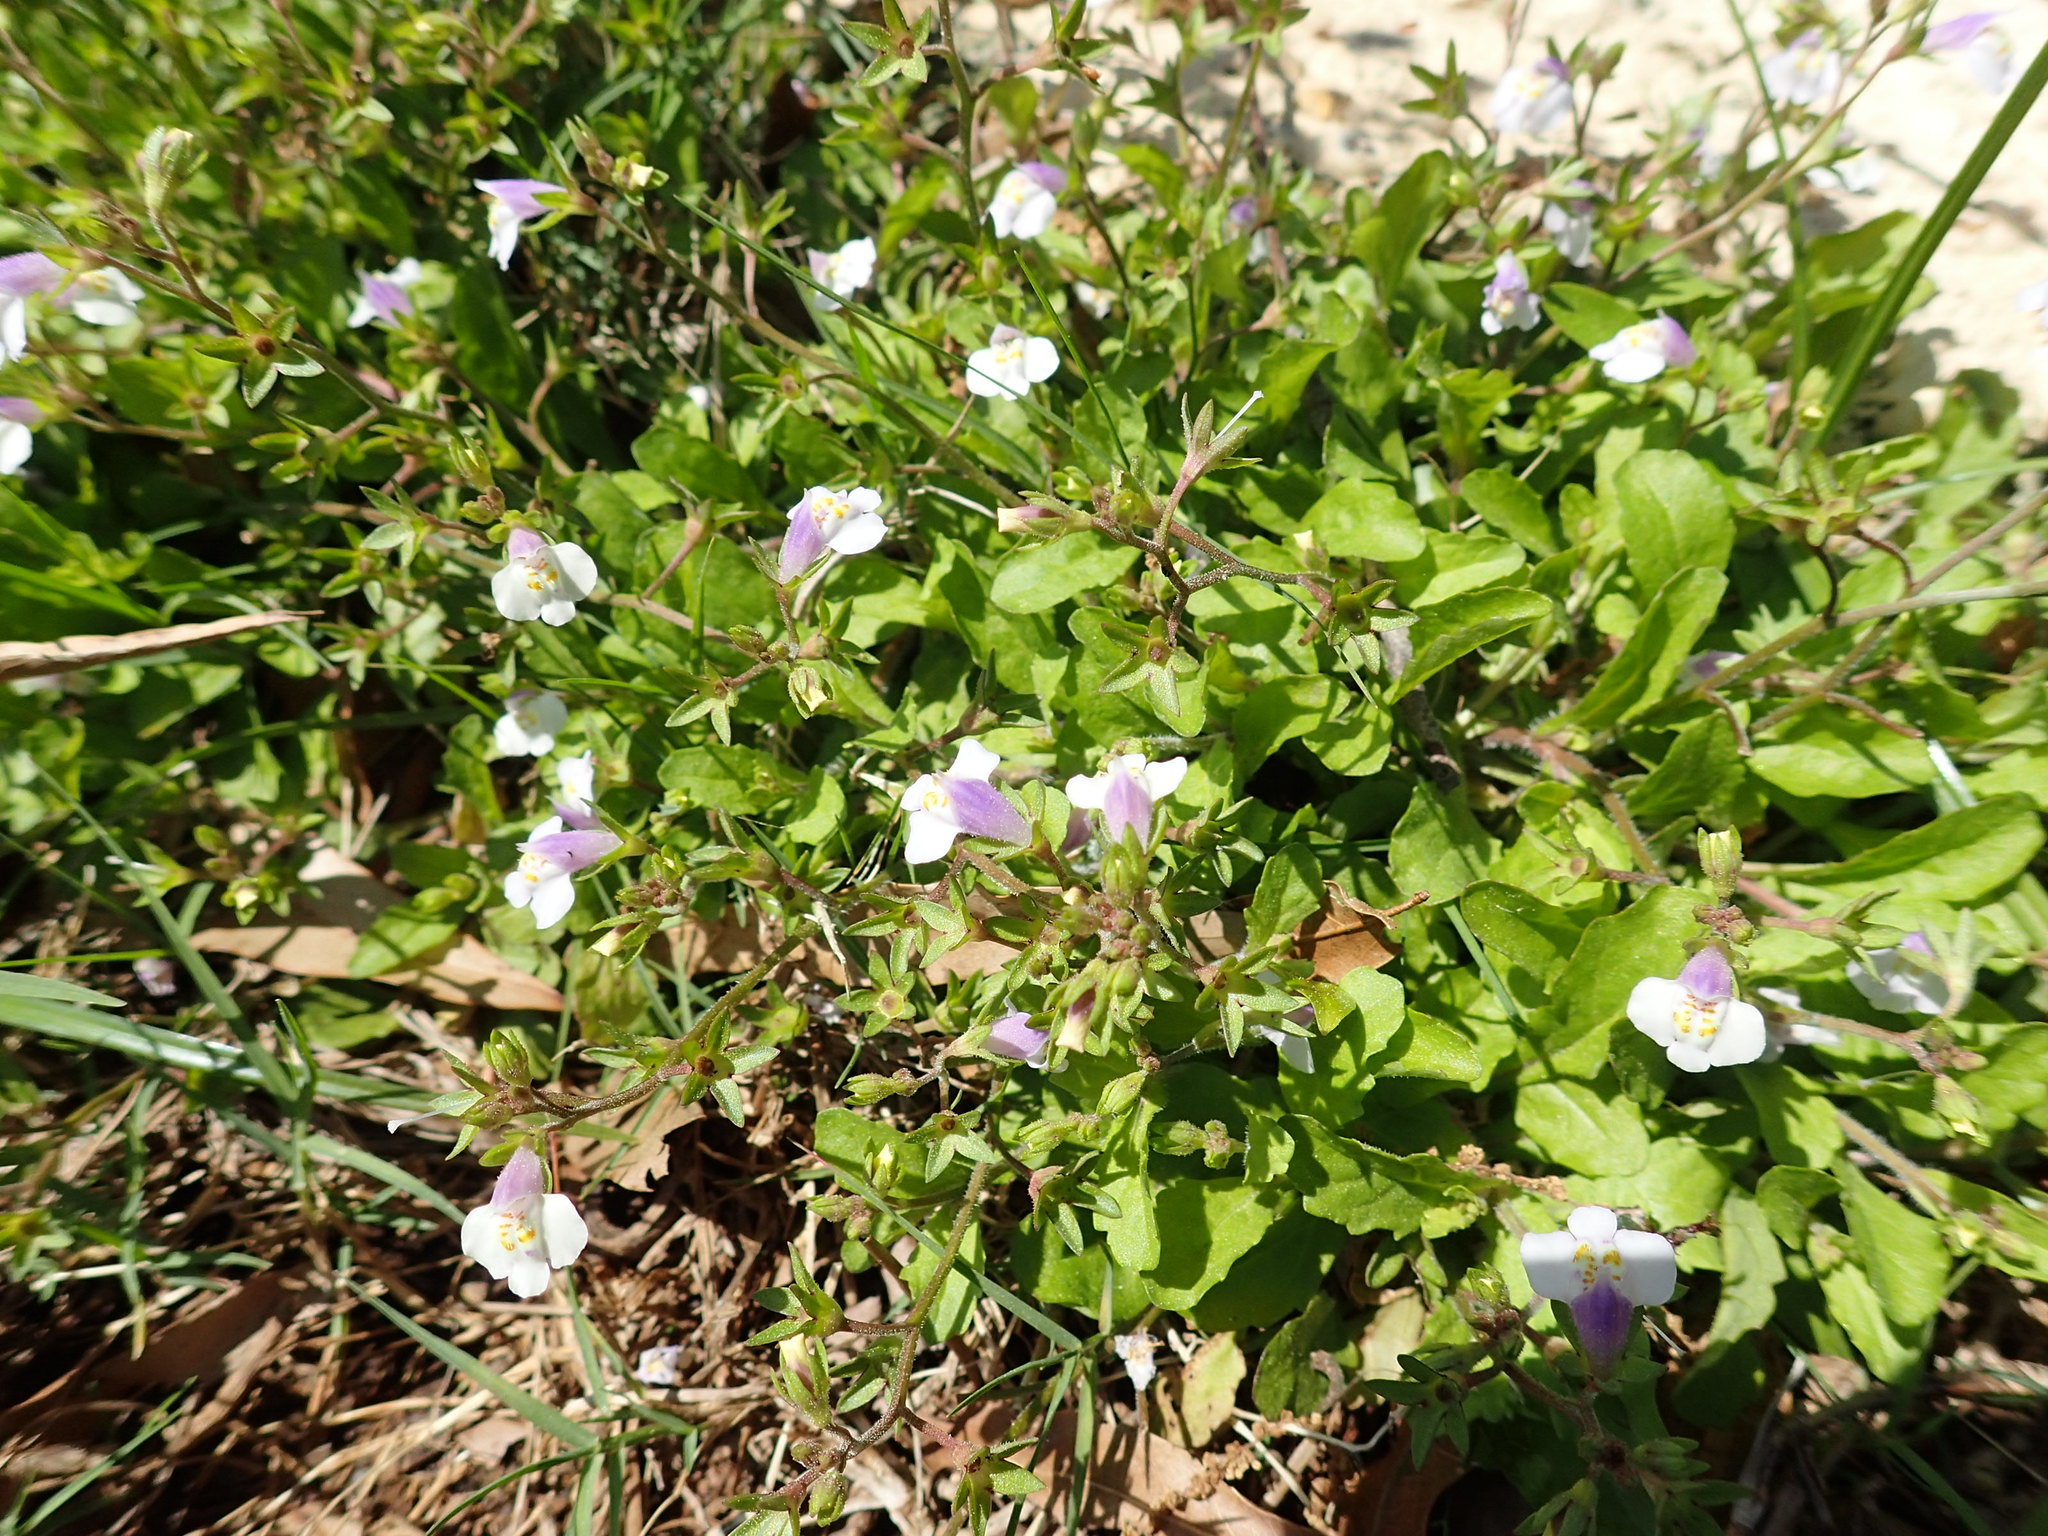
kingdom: Plantae
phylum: Tracheophyta
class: Magnoliopsida
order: Lamiales
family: Mazaceae
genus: Mazus
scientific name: Mazus pumilus
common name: Japanese mazus
